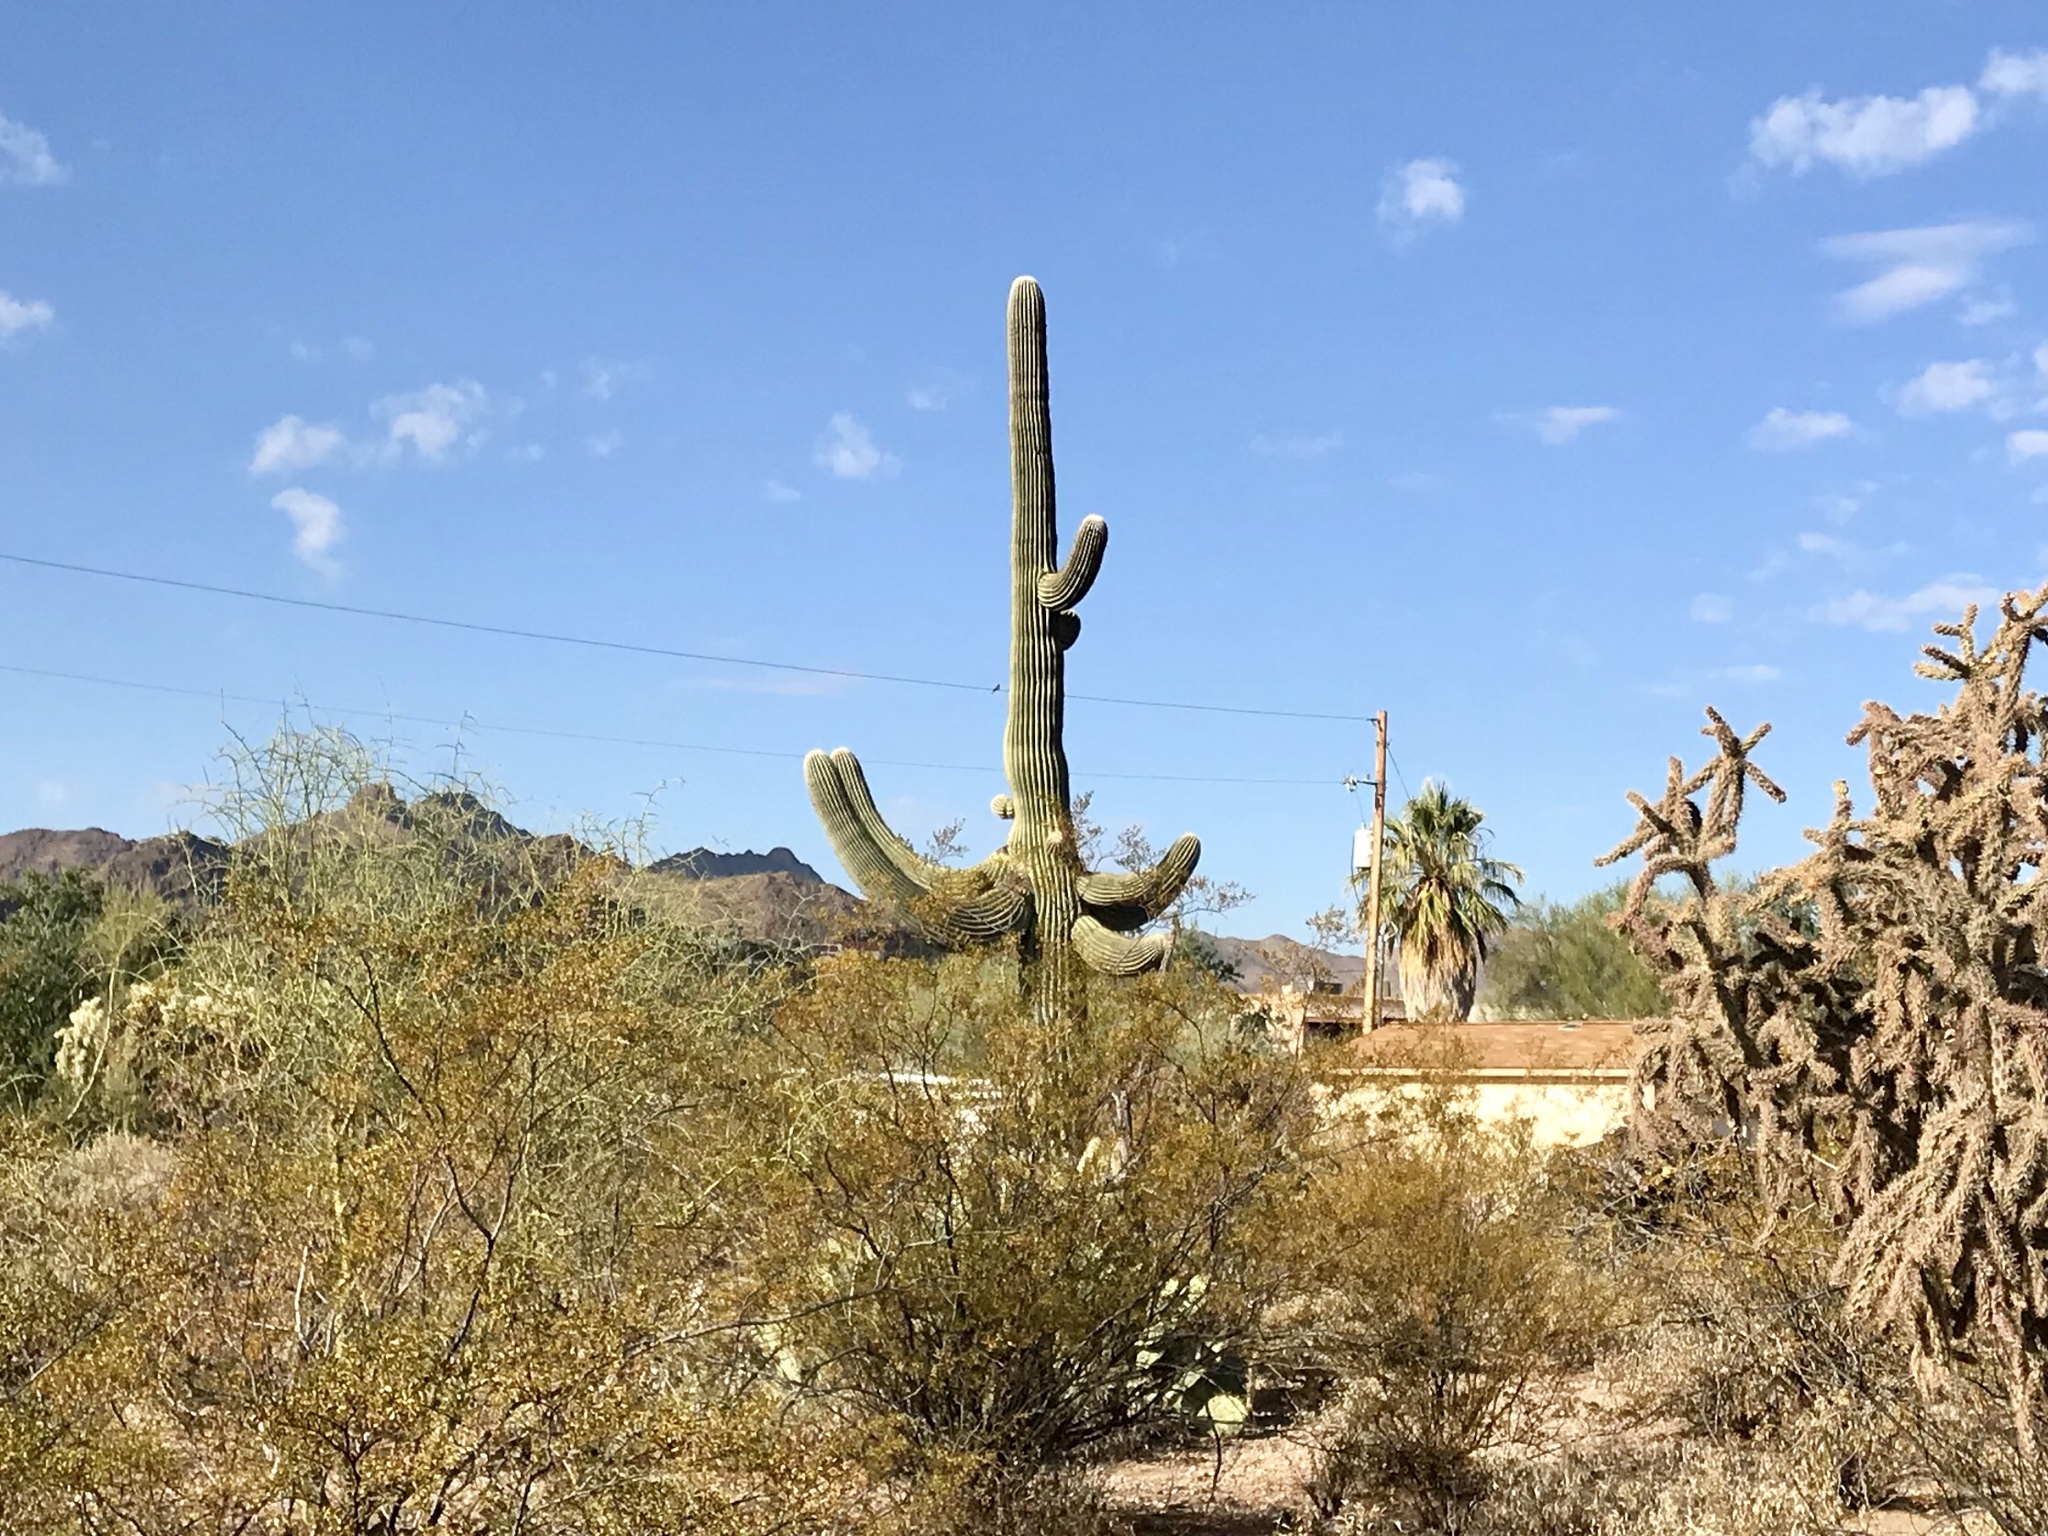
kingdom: Plantae
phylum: Tracheophyta
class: Magnoliopsida
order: Caryophyllales
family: Cactaceae
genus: Carnegiea
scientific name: Carnegiea gigantea
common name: Saguaro
